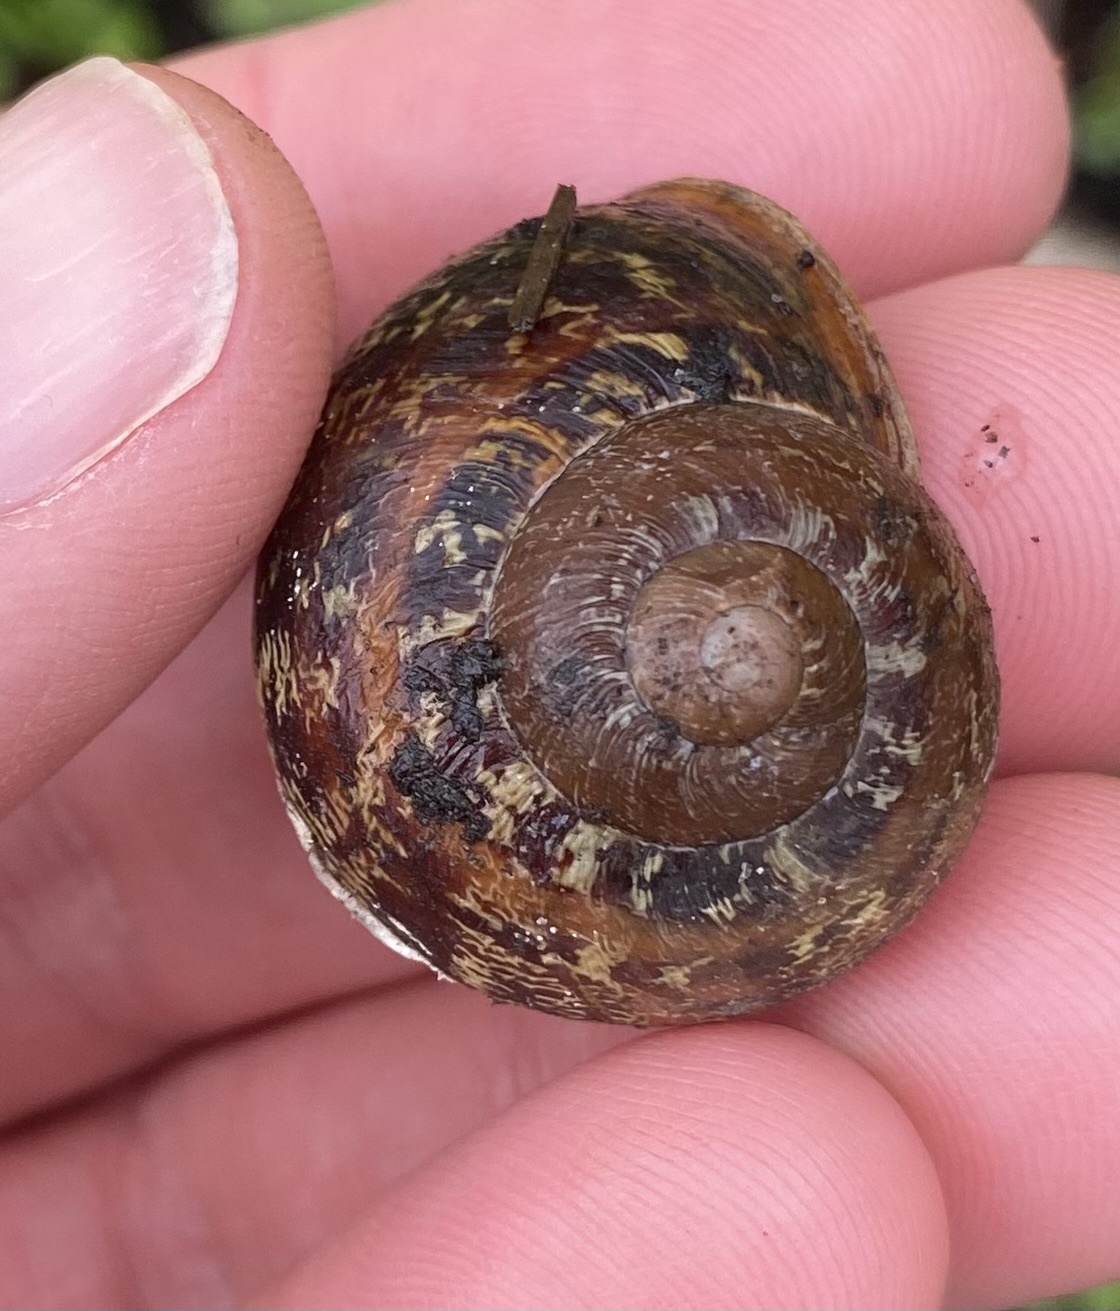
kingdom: Animalia
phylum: Mollusca
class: Gastropoda
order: Stylommatophora
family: Helicidae
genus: Cornu
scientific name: Cornu aspersum
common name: Brown garden snail
